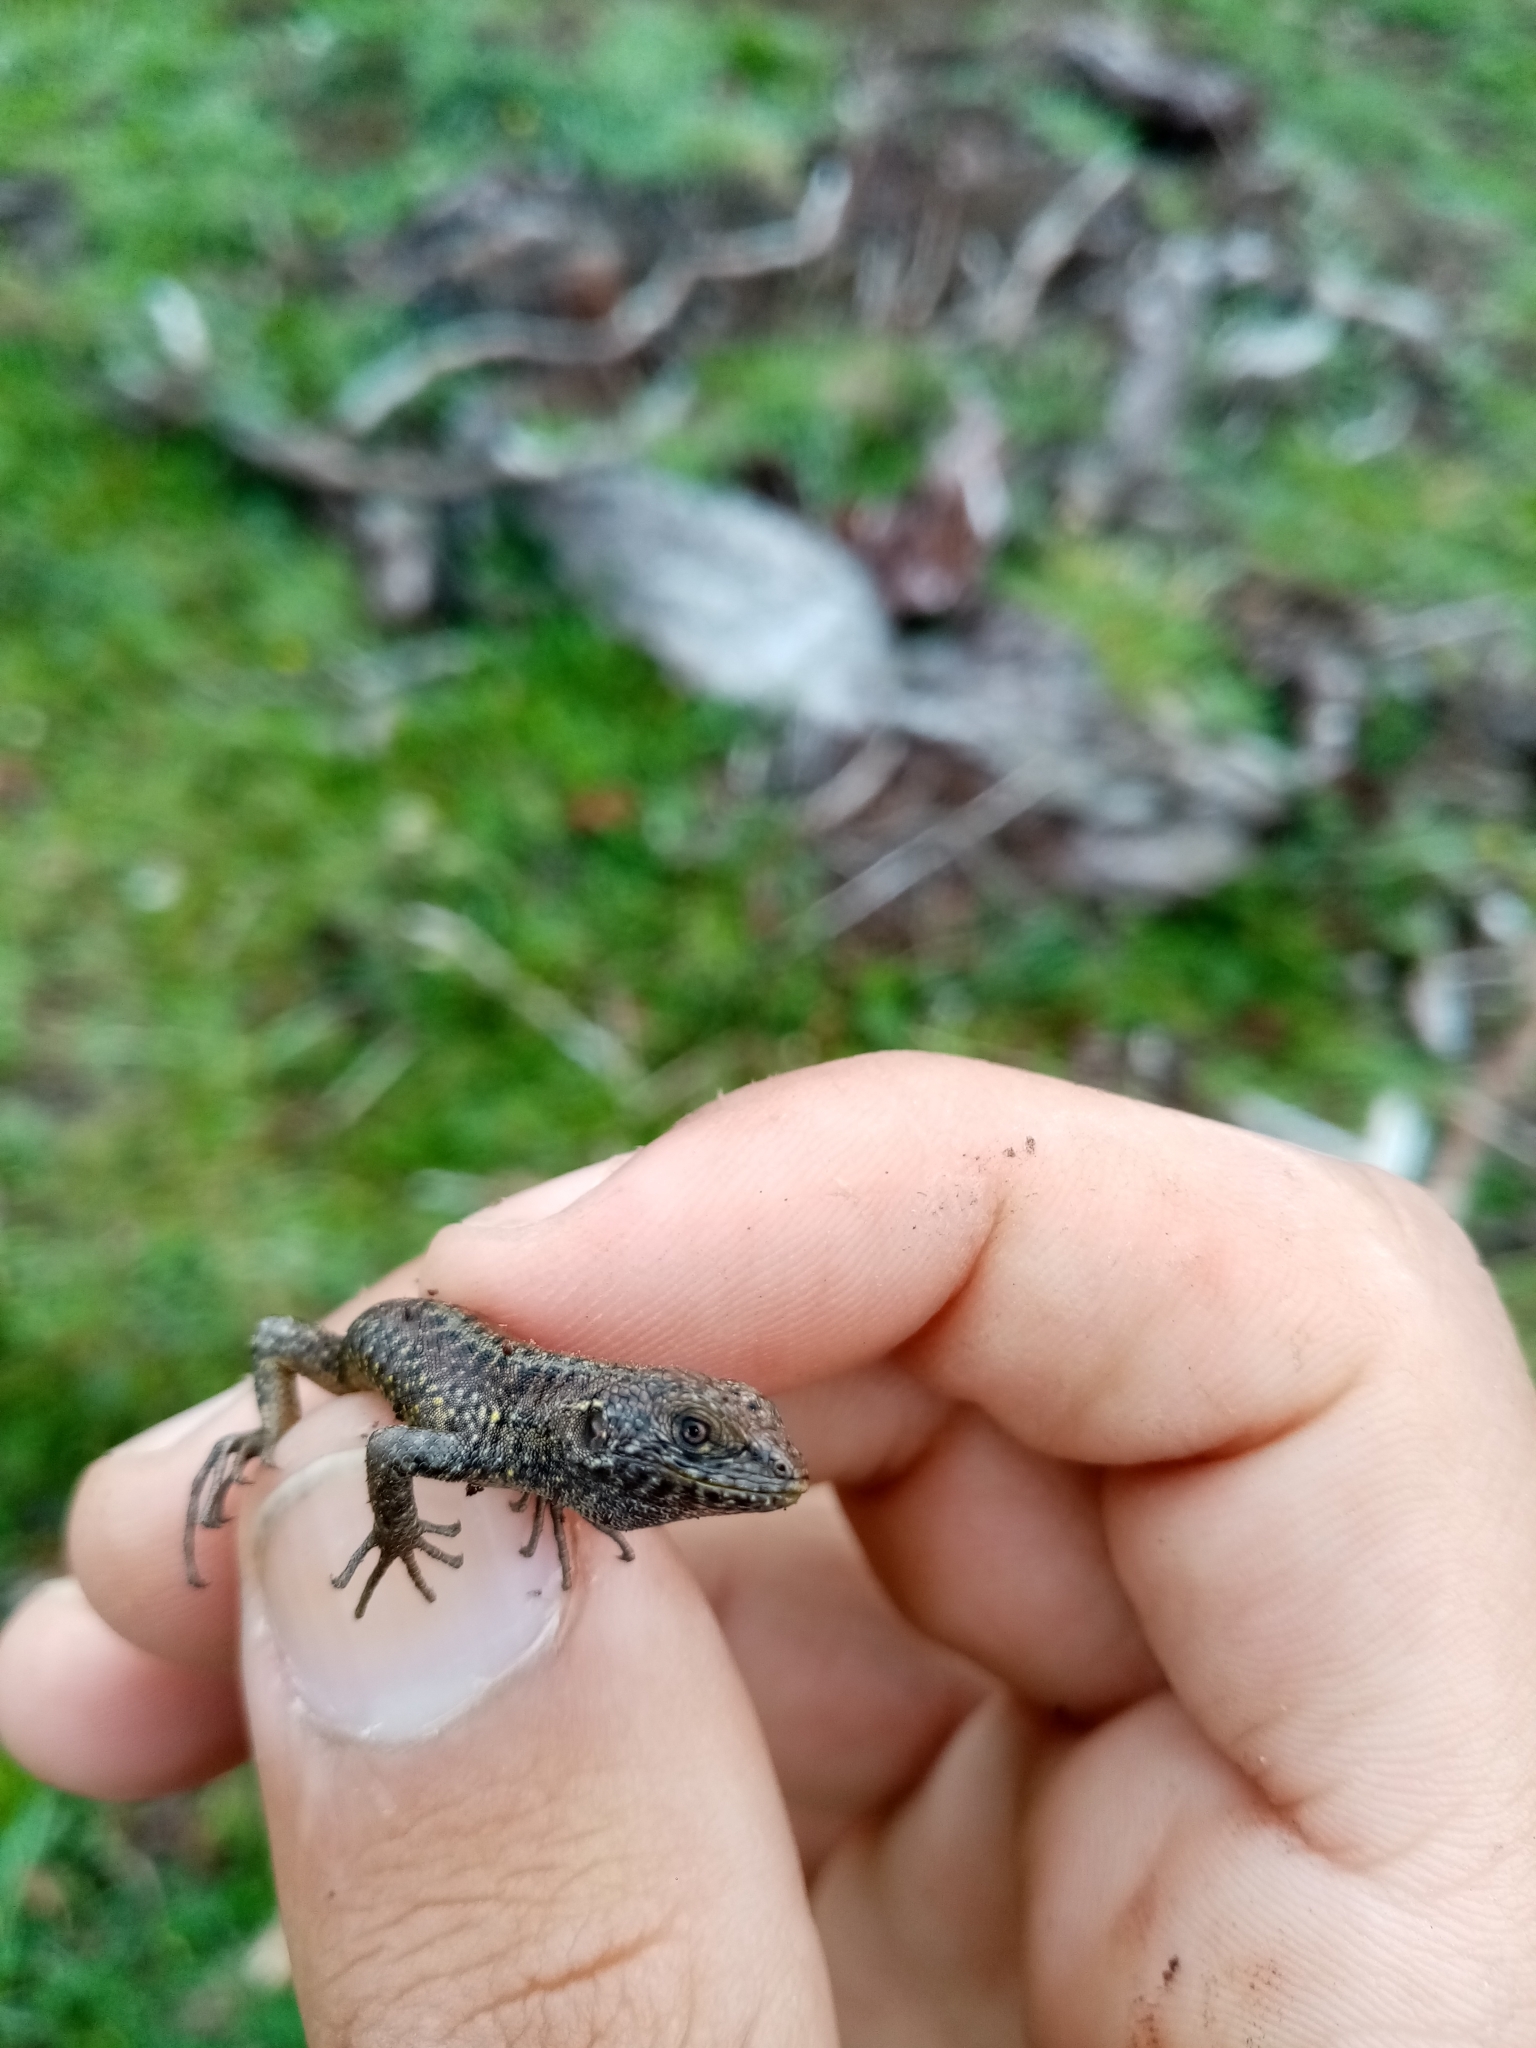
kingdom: Animalia
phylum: Chordata
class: Squamata
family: Liolaemidae
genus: Liolaemus
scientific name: Liolaemus pictus
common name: Painted tree iguana
